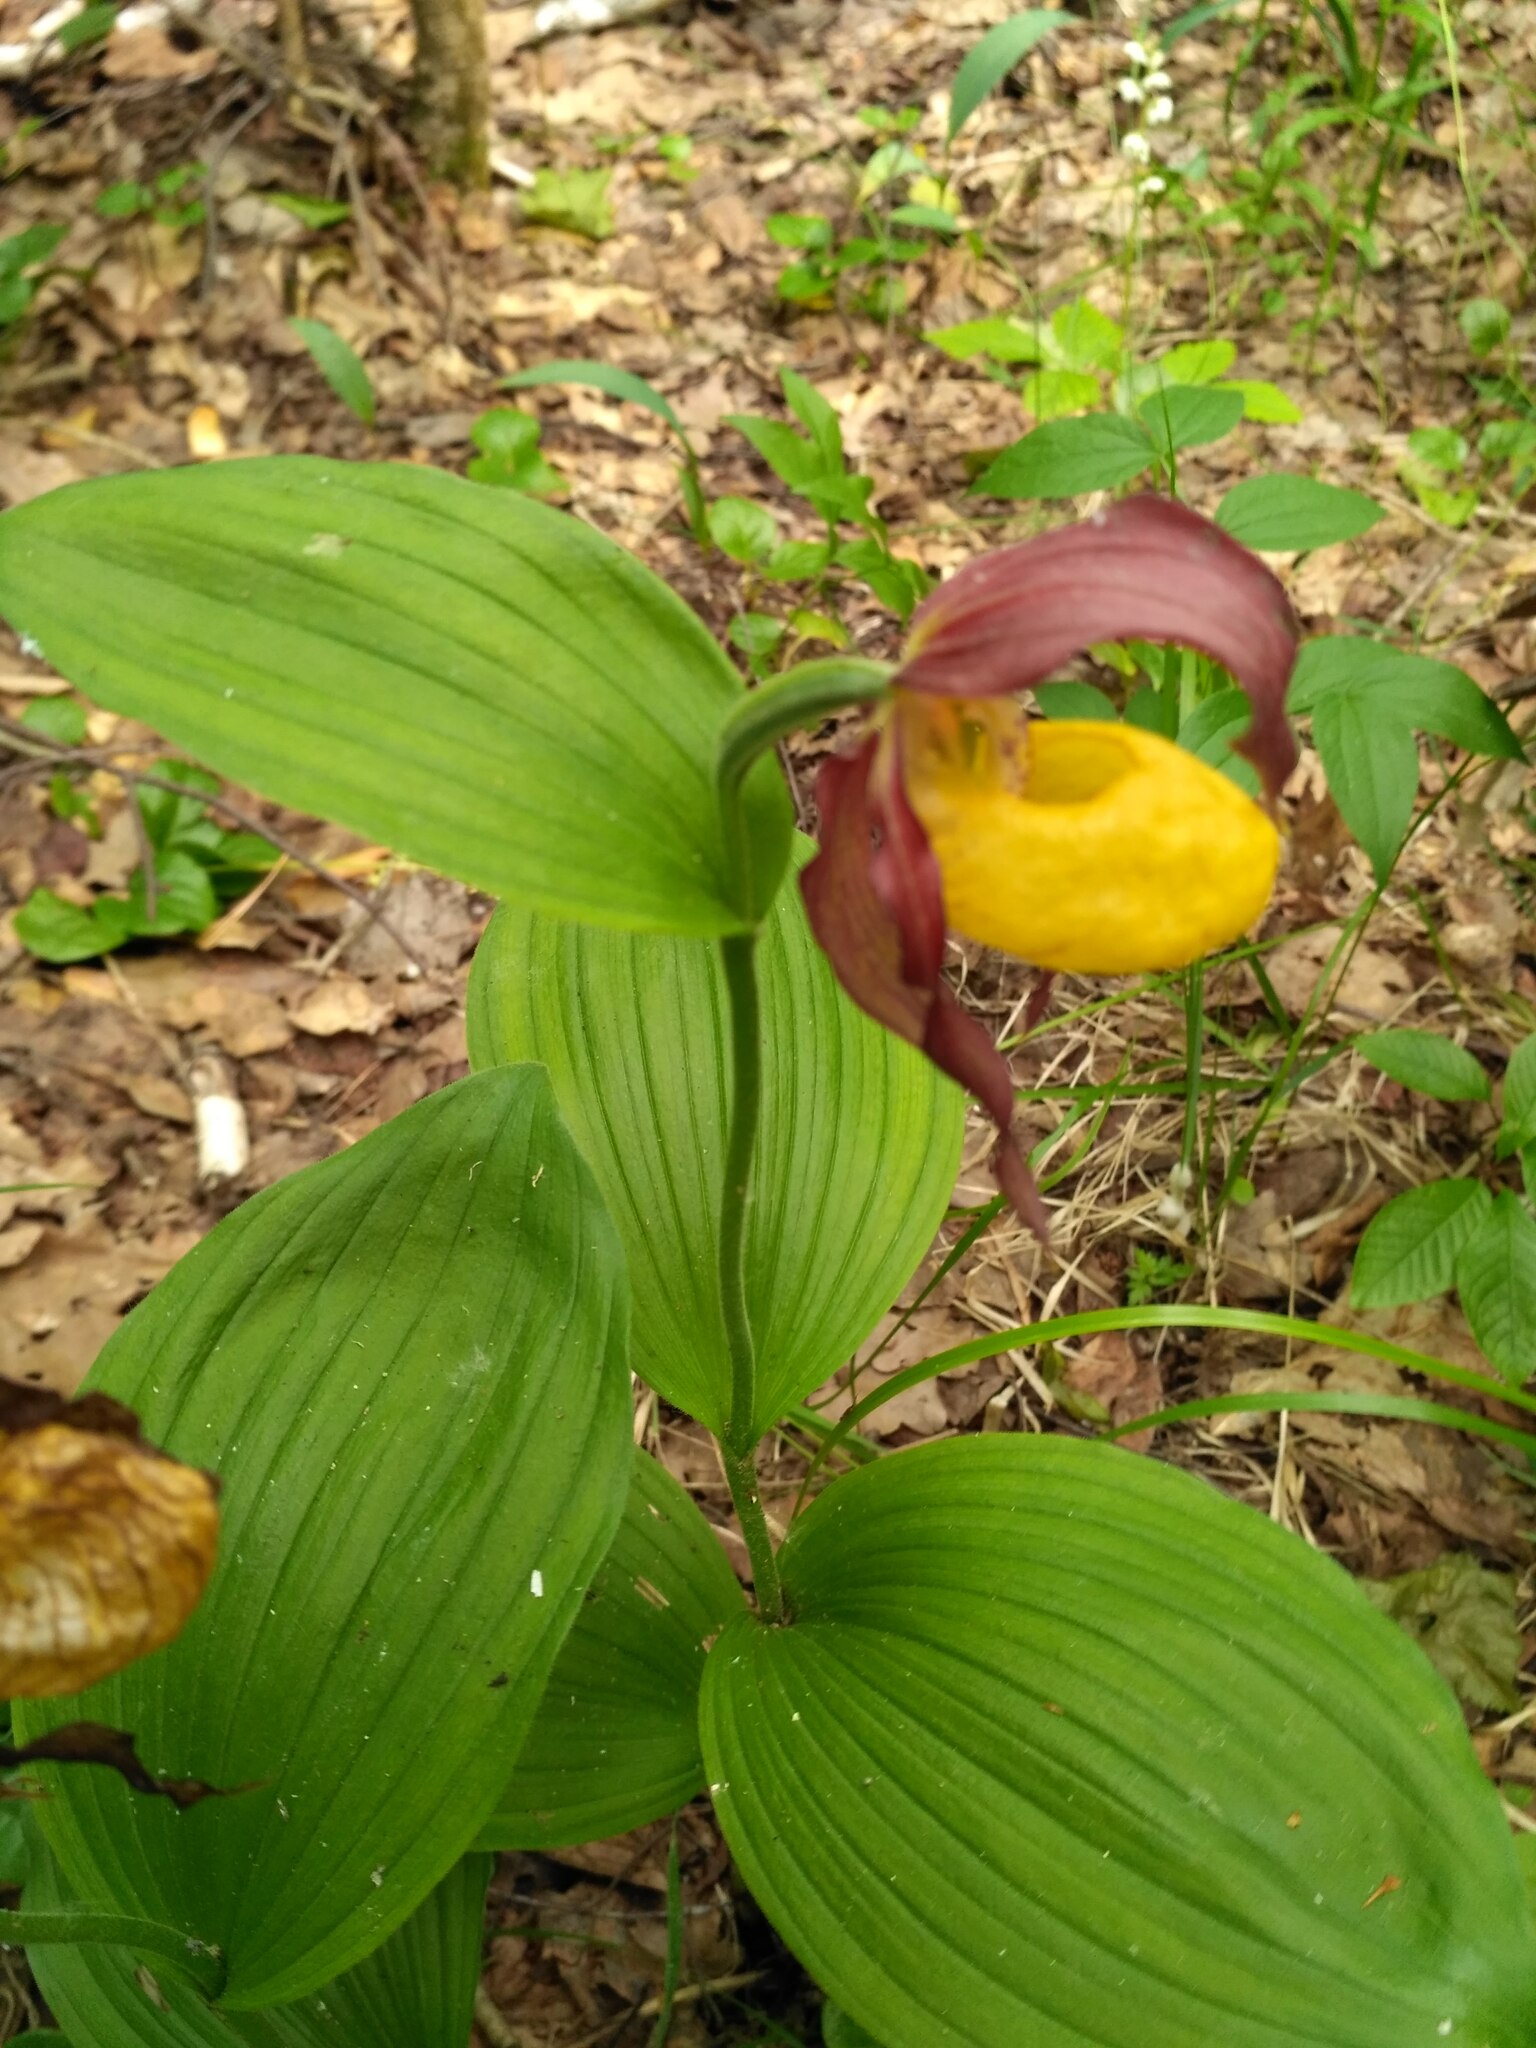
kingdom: Plantae
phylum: Tracheophyta
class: Liliopsida
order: Asparagales
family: Orchidaceae
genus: Cypripedium
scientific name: Cypripedium calceolus
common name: Lady's-slipper
